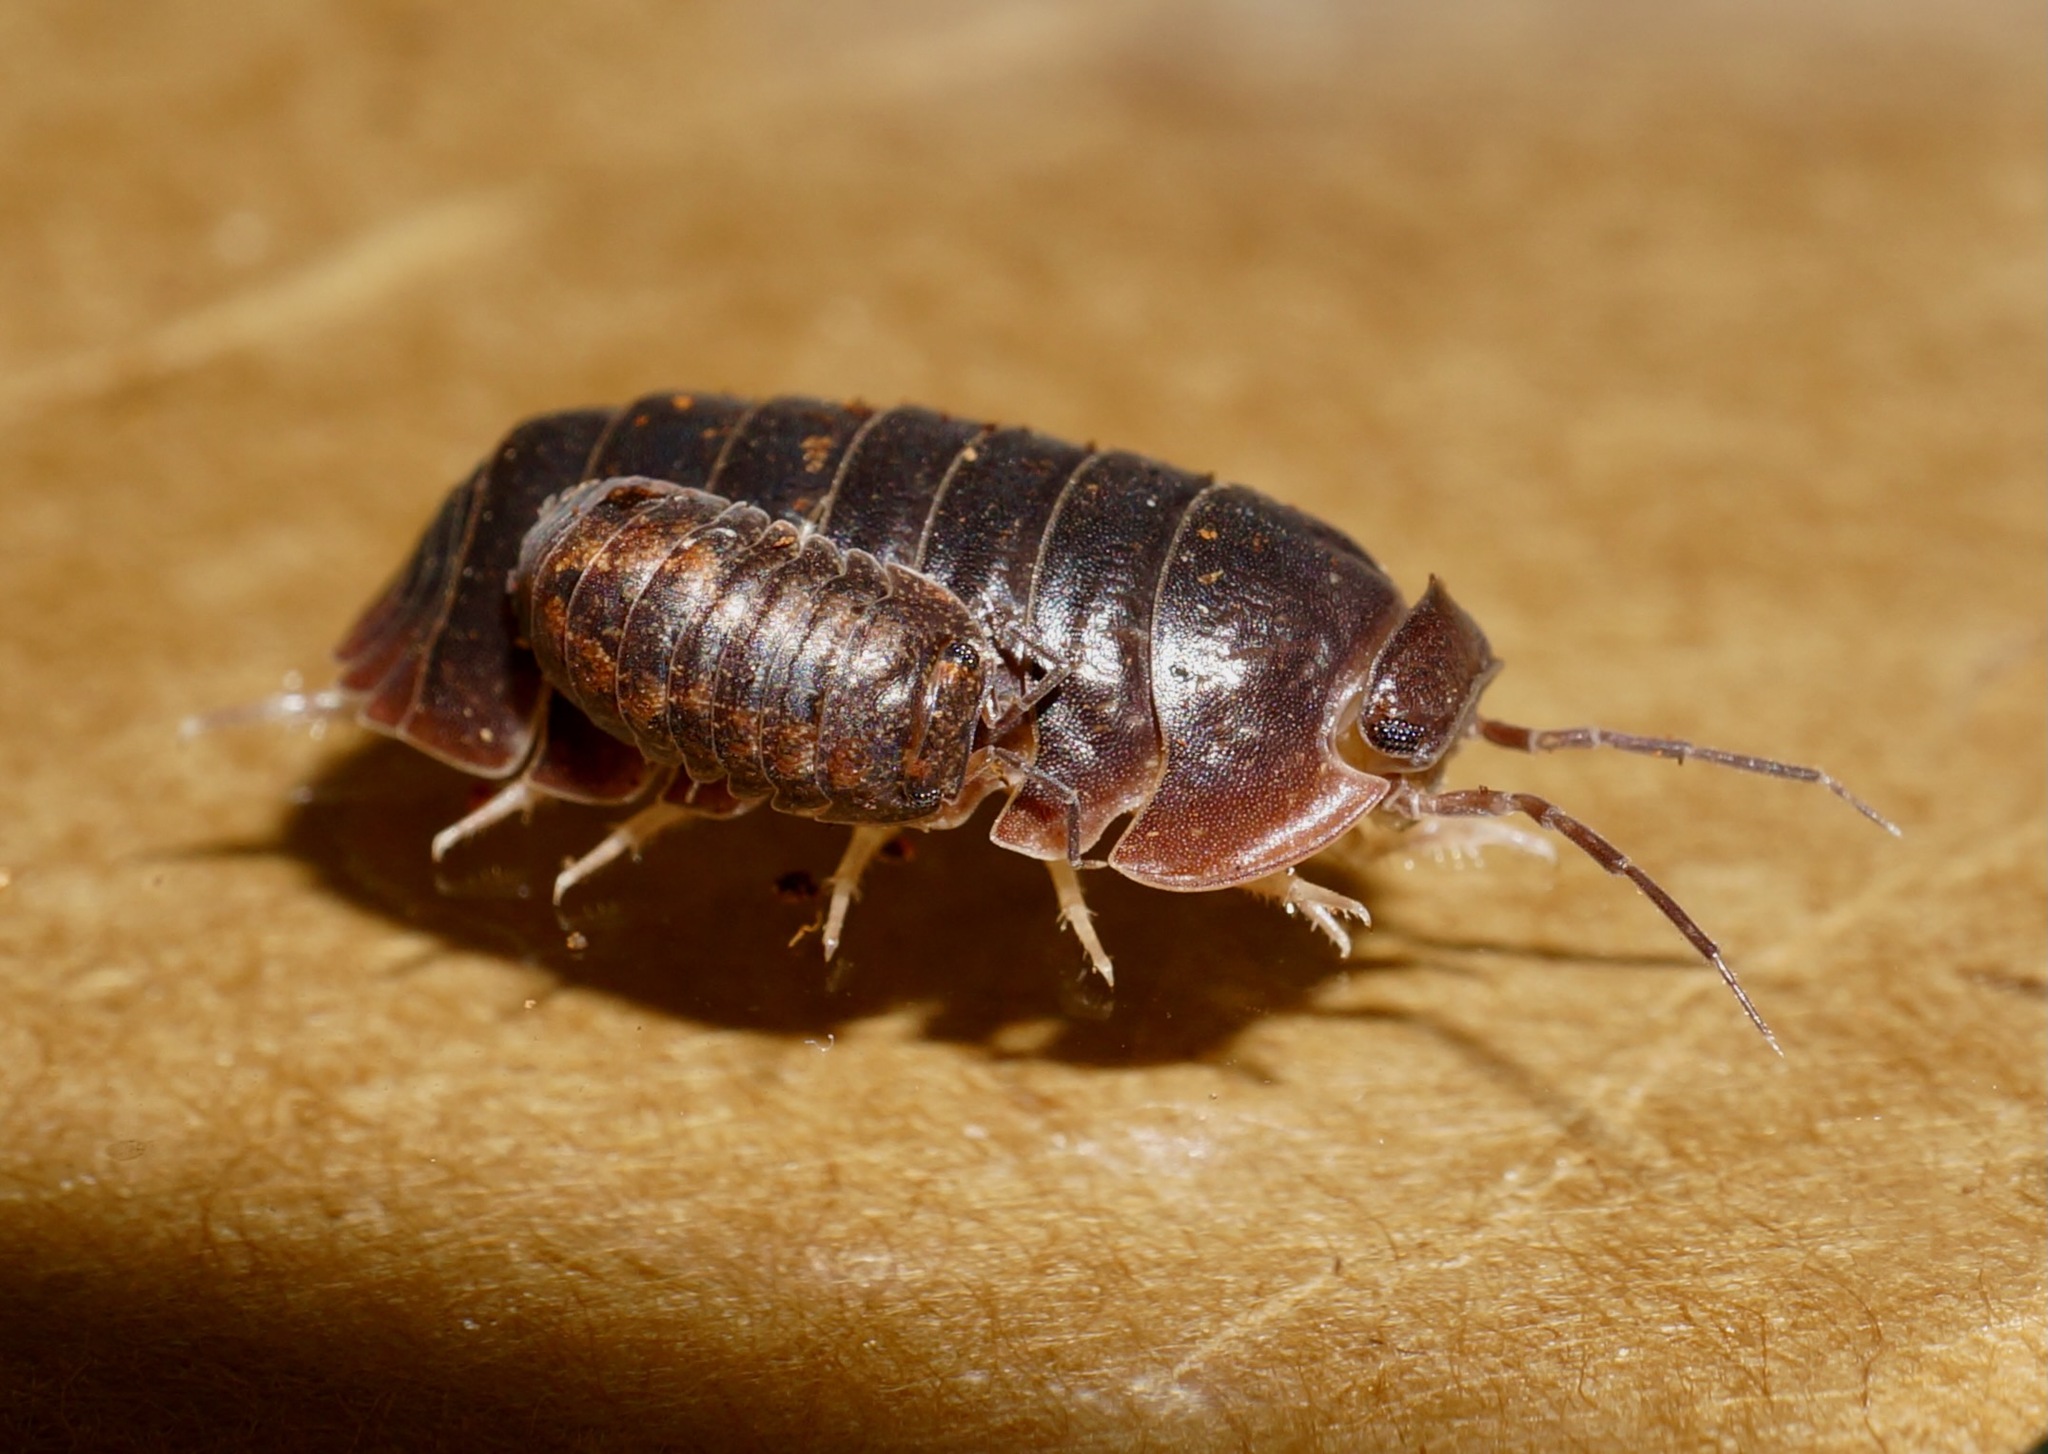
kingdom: Animalia
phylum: Arthropoda
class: Malacostraca
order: Isopoda
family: Armadillidae
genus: Cubaris
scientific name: Cubaris tarangensis
